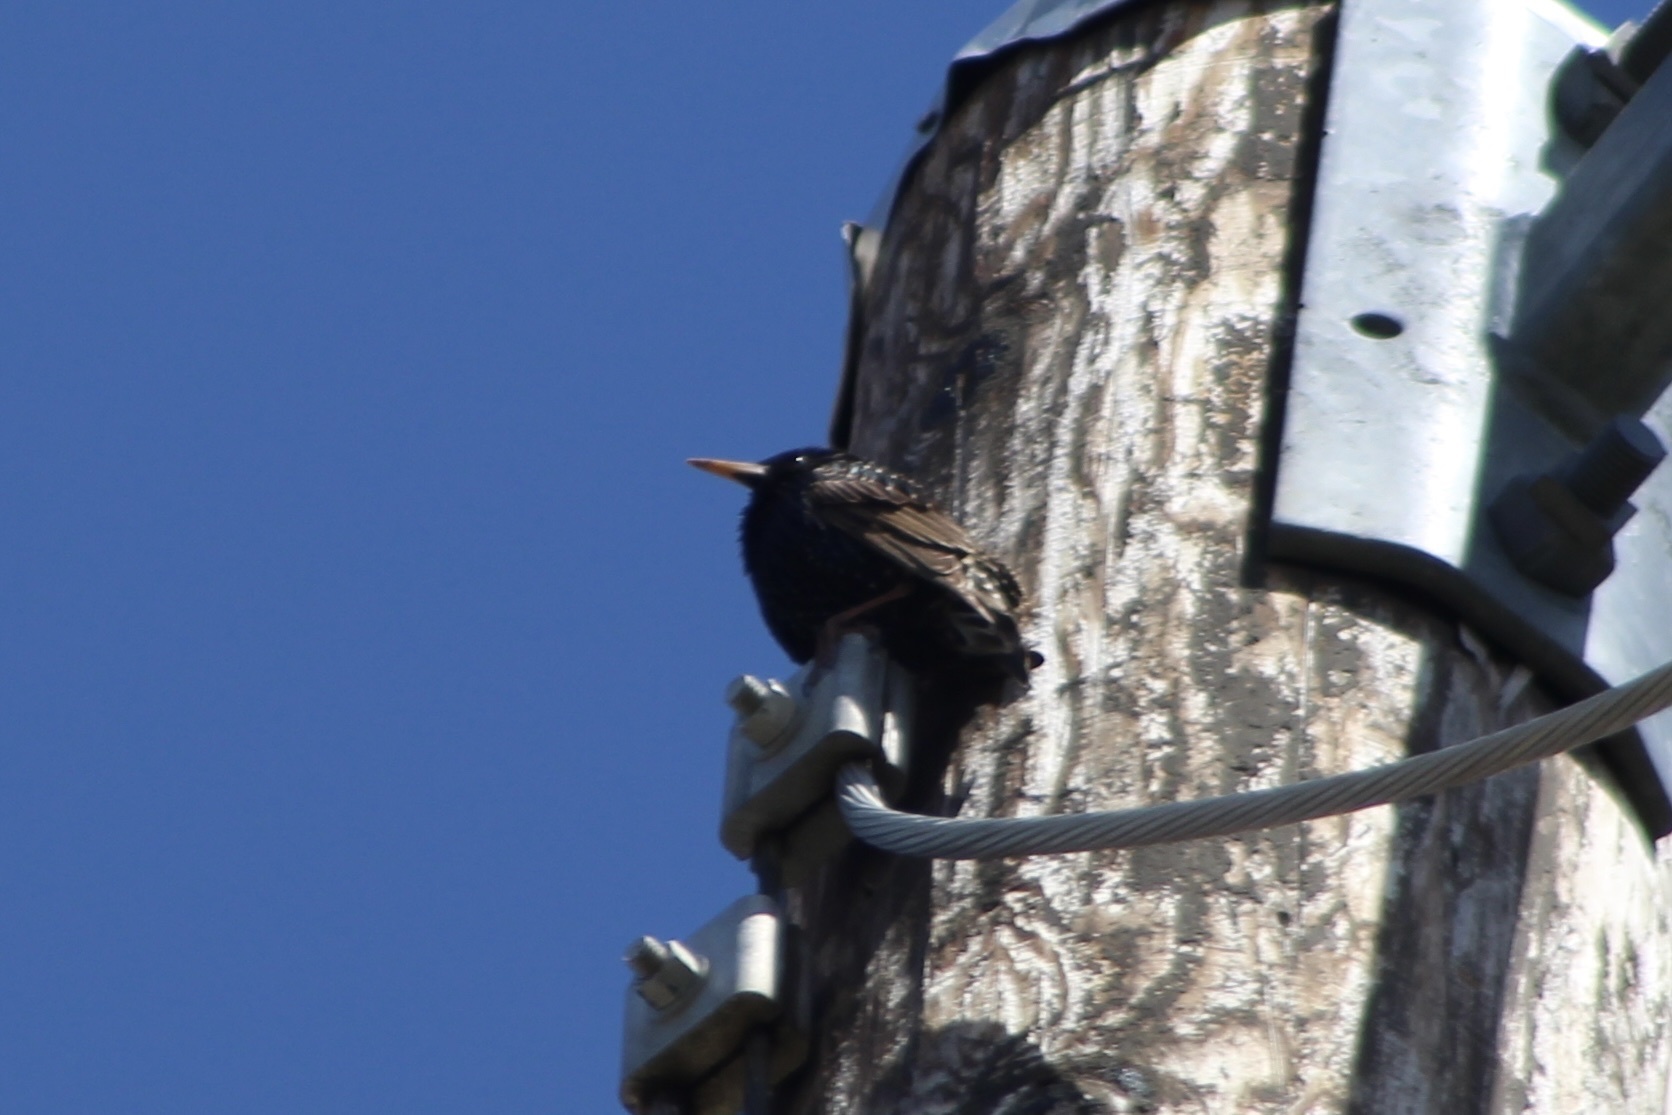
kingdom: Animalia
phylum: Chordata
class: Aves
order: Passeriformes
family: Sturnidae
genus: Sturnus
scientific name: Sturnus vulgaris
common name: Common starling
